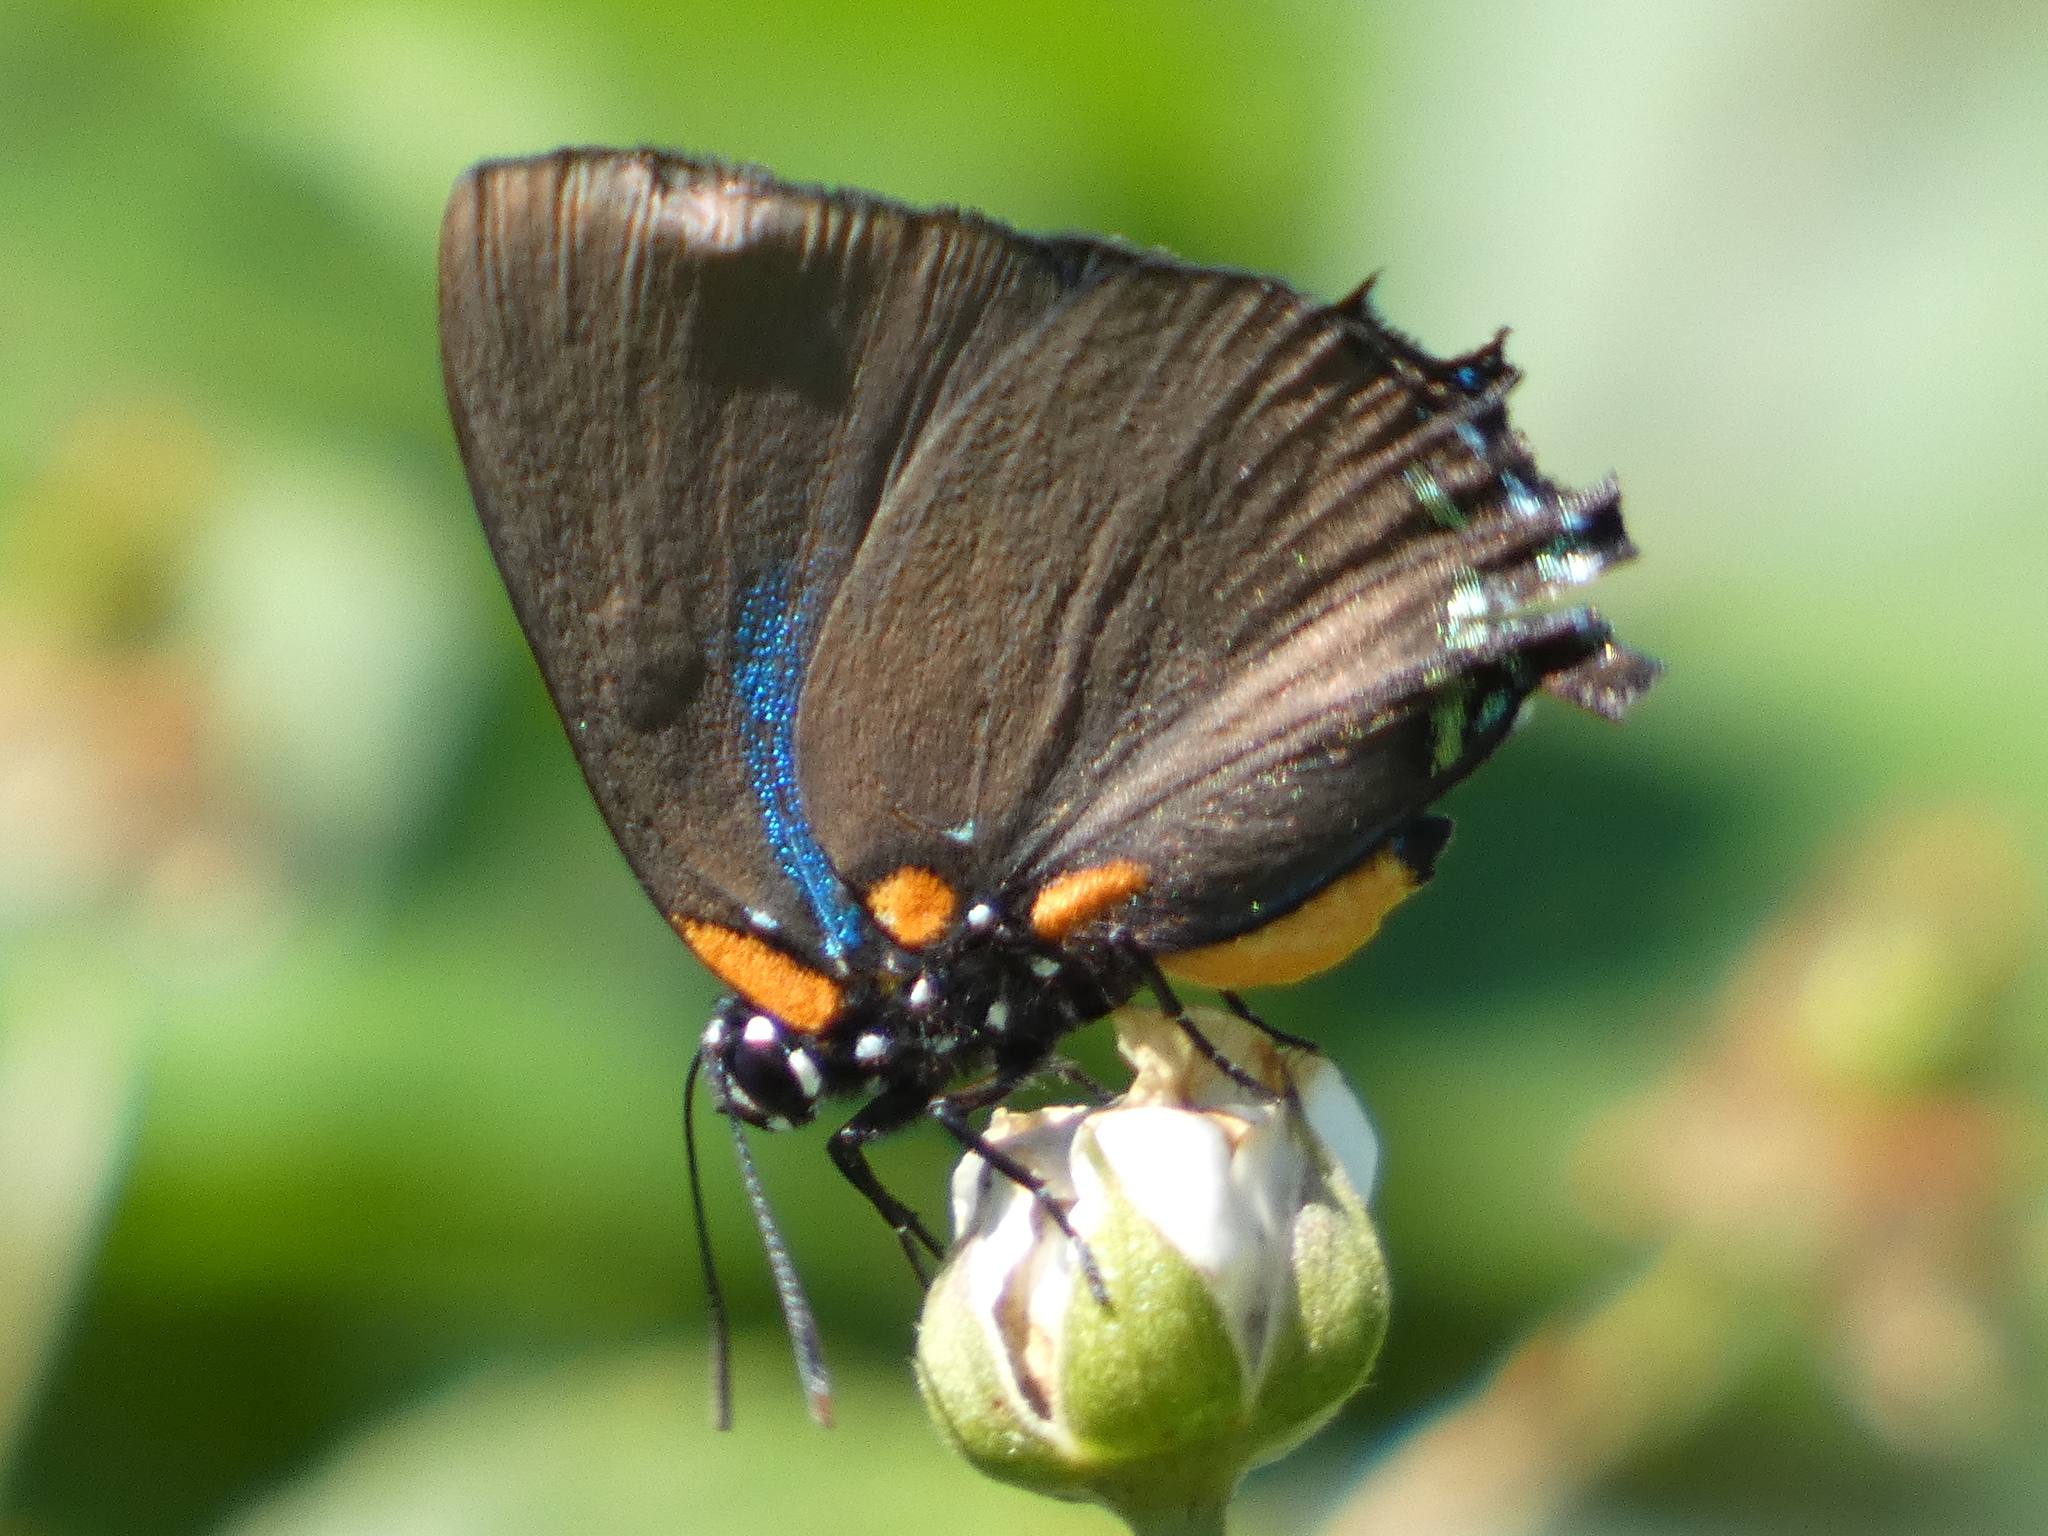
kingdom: Animalia
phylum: Arthropoda
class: Insecta
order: Lepidoptera
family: Lycaenidae
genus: Atlides
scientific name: Atlides halesus
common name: Great purple hairstreak
